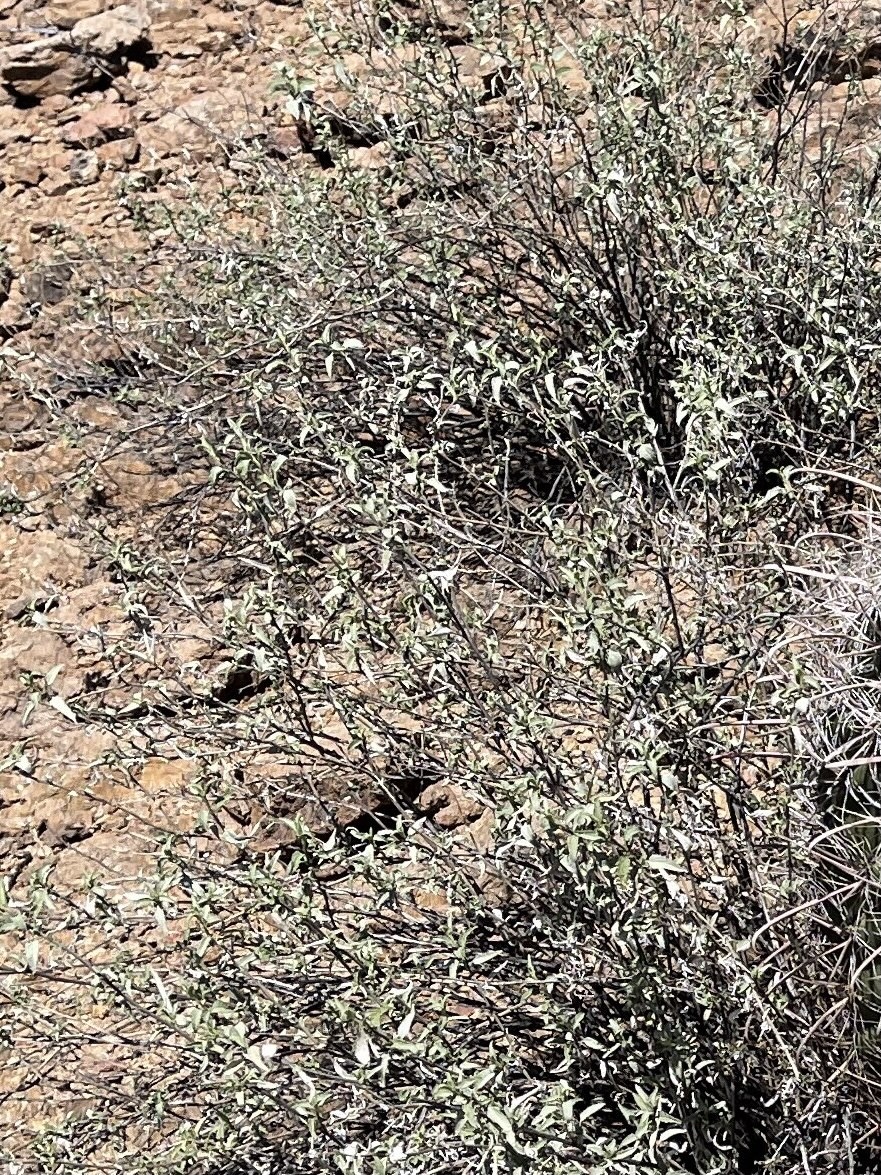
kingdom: Plantae
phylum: Tracheophyta
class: Magnoliopsida
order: Asterales
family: Asteraceae
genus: Ambrosia
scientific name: Ambrosia deltoidea
